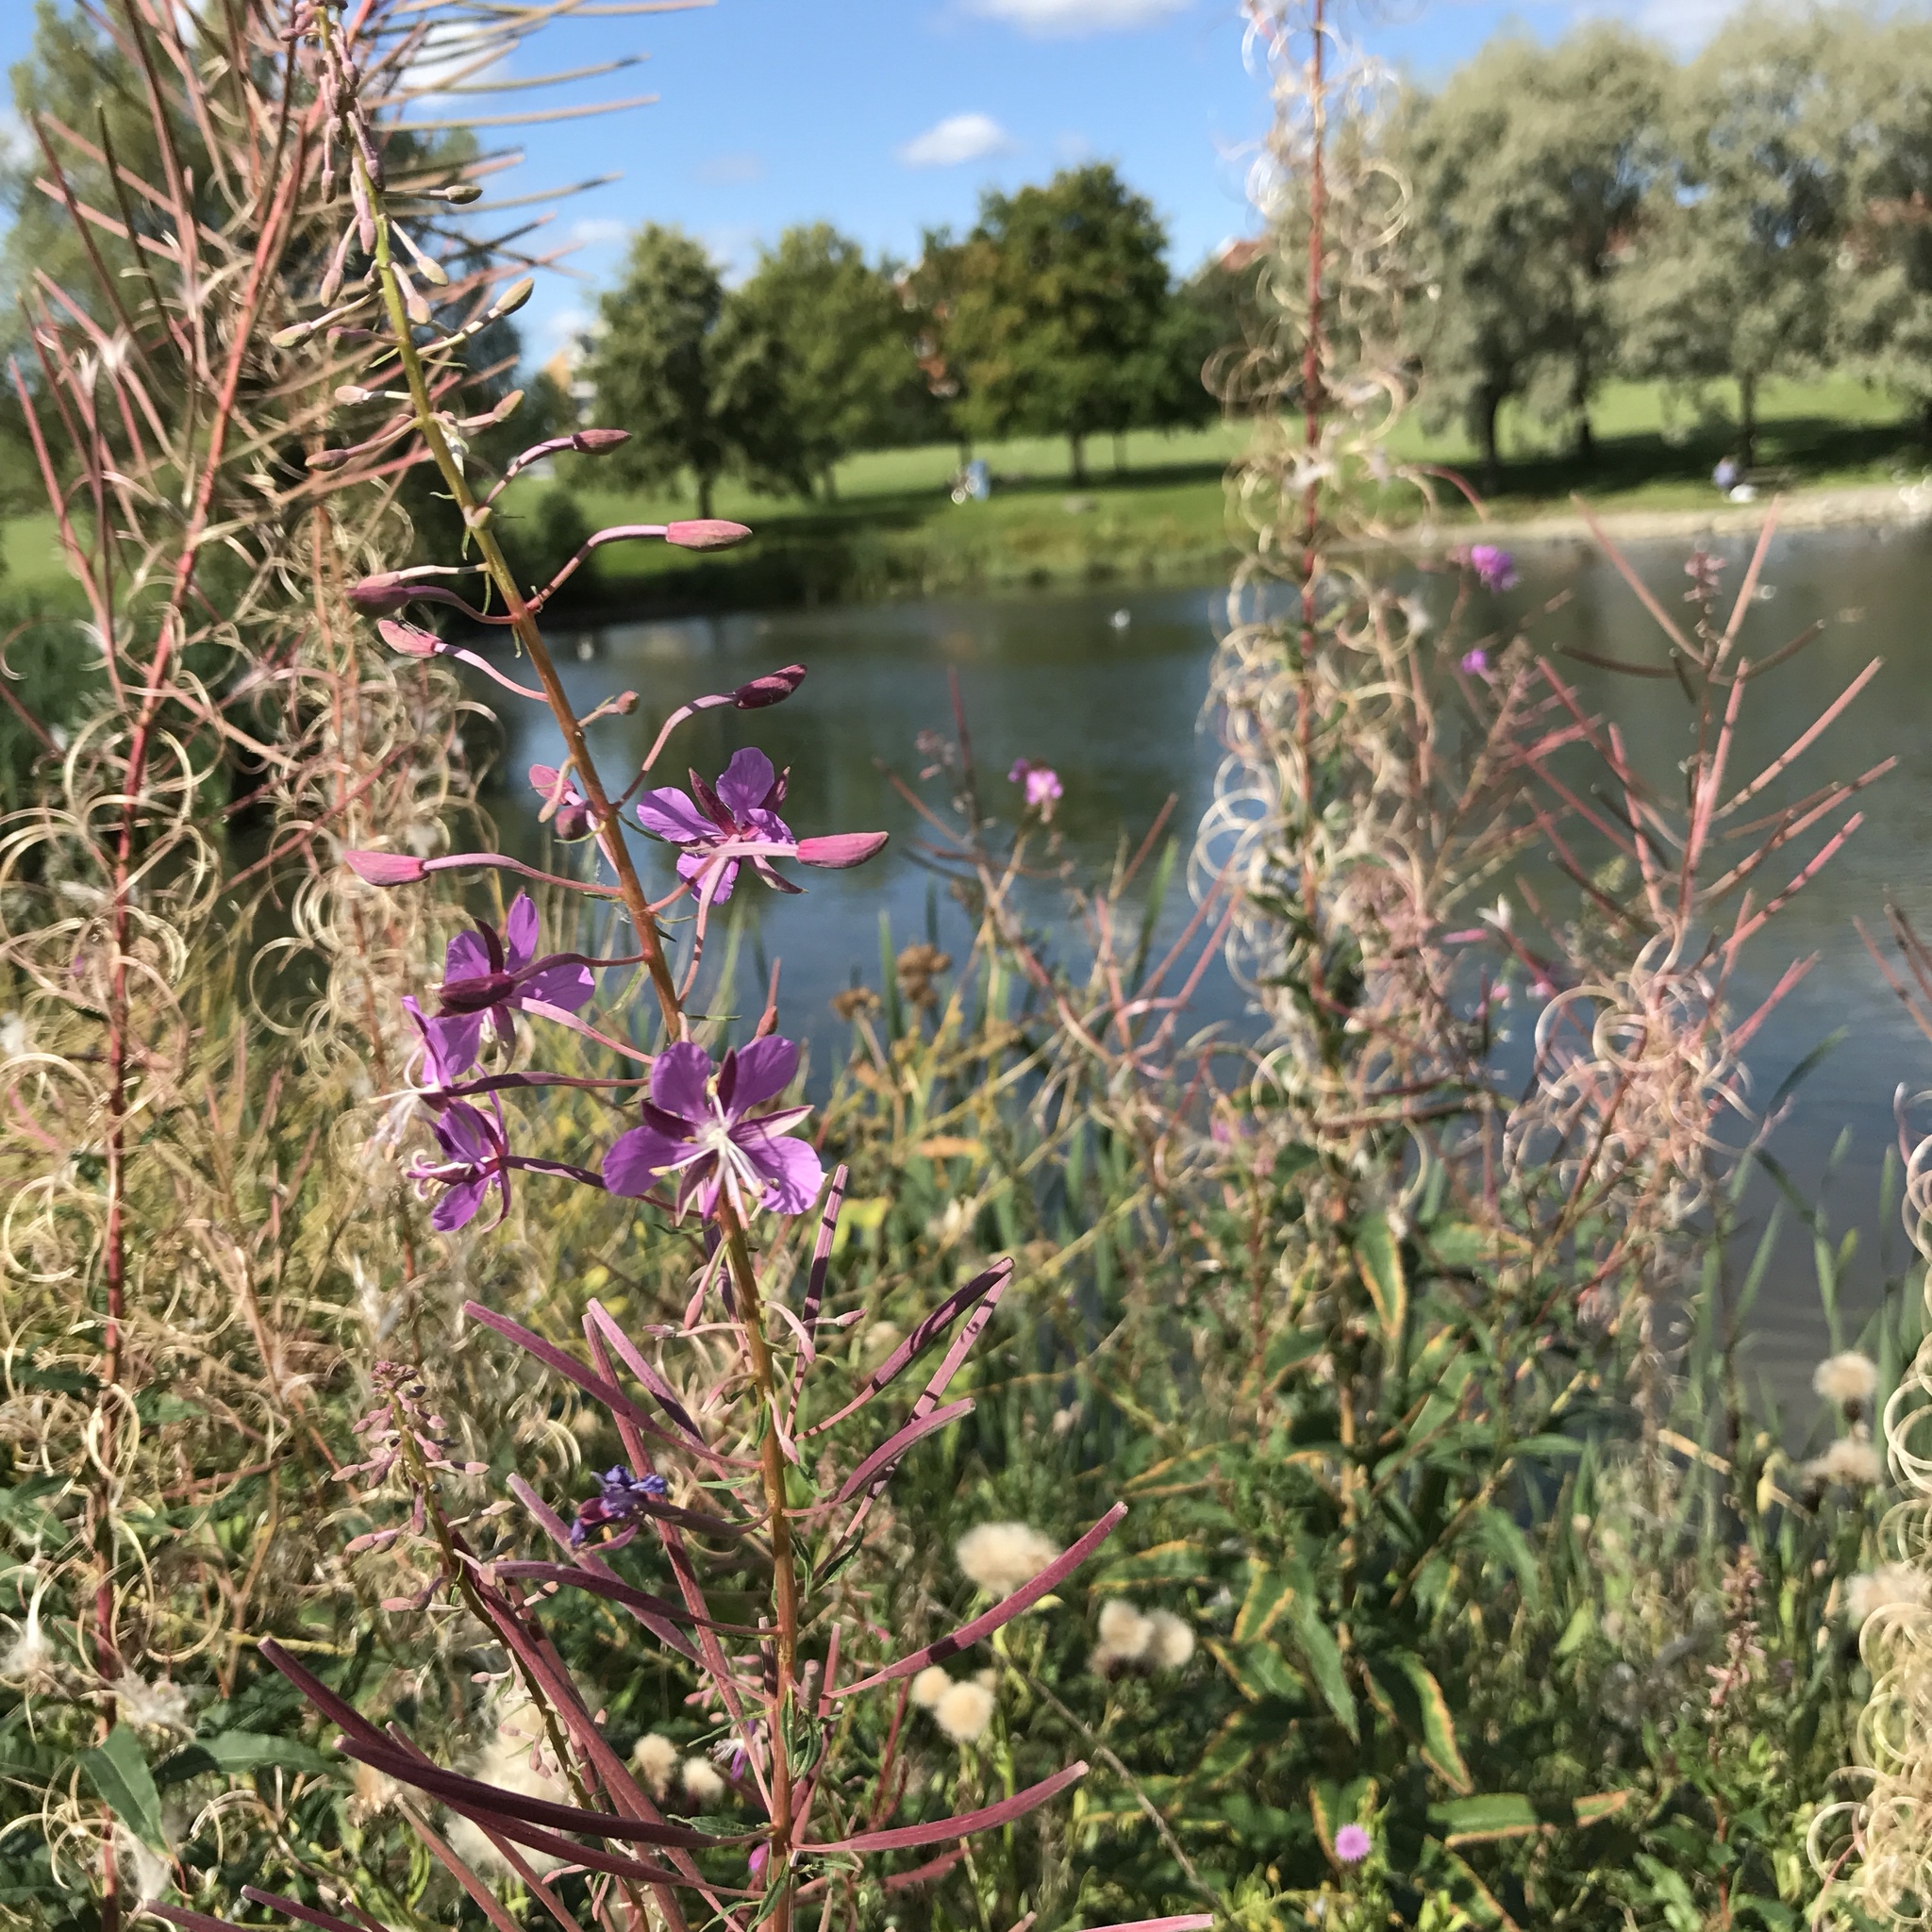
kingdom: Plantae
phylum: Tracheophyta
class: Magnoliopsida
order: Myrtales
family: Onagraceae
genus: Chamaenerion
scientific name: Chamaenerion angustifolium
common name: Fireweed
